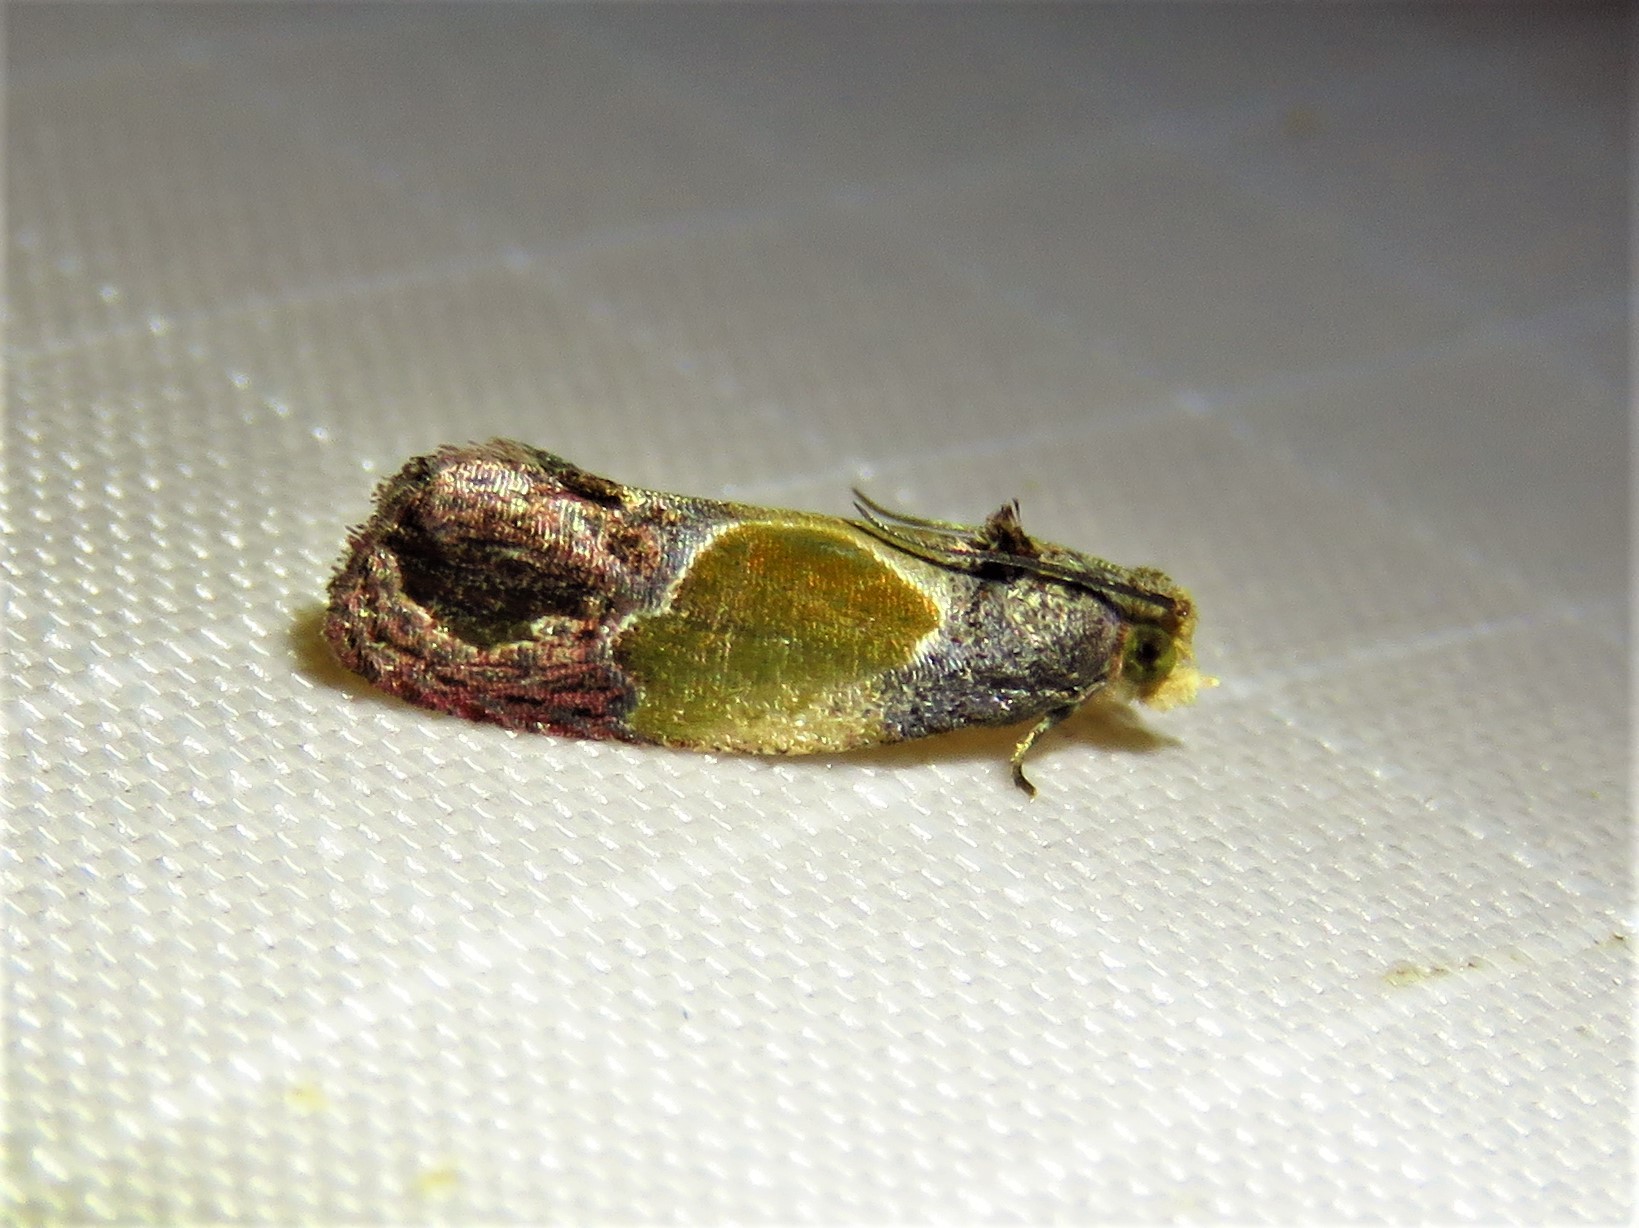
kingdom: Animalia
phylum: Arthropoda
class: Insecta
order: Lepidoptera
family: Tortricidae
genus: Eumarozia
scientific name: Eumarozia malachitana
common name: Sculptured moth
